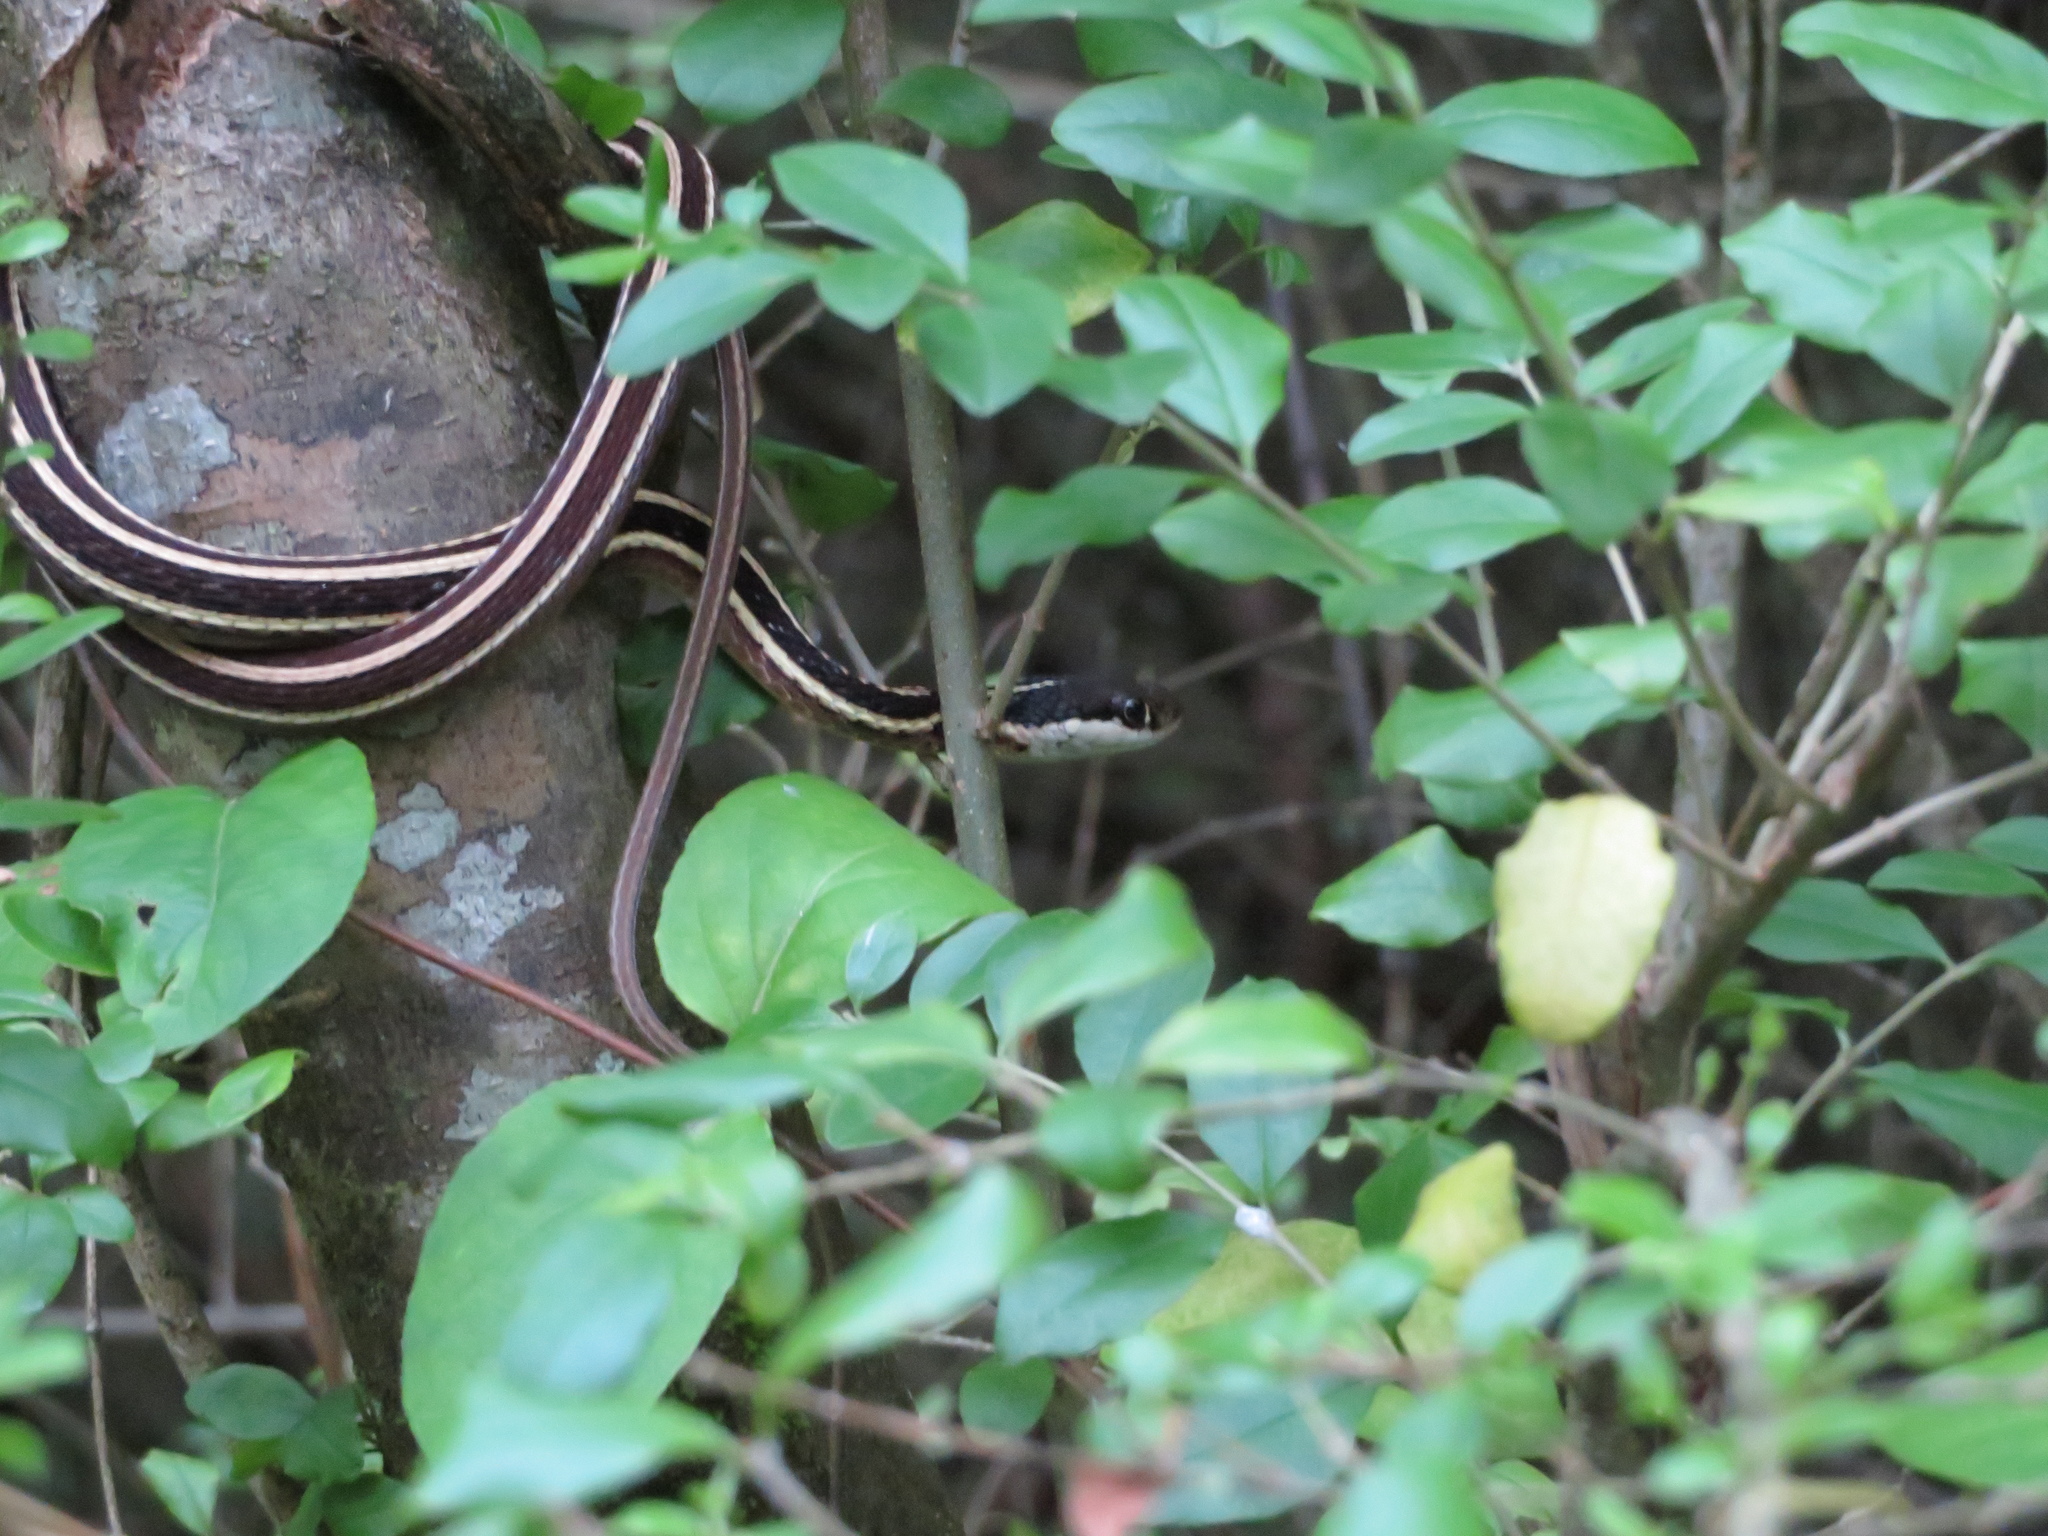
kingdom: Animalia
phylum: Chordata
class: Squamata
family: Colubridae
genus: Thamnophis
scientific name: Thamnophis saurita
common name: Eastern ribbonsnake
